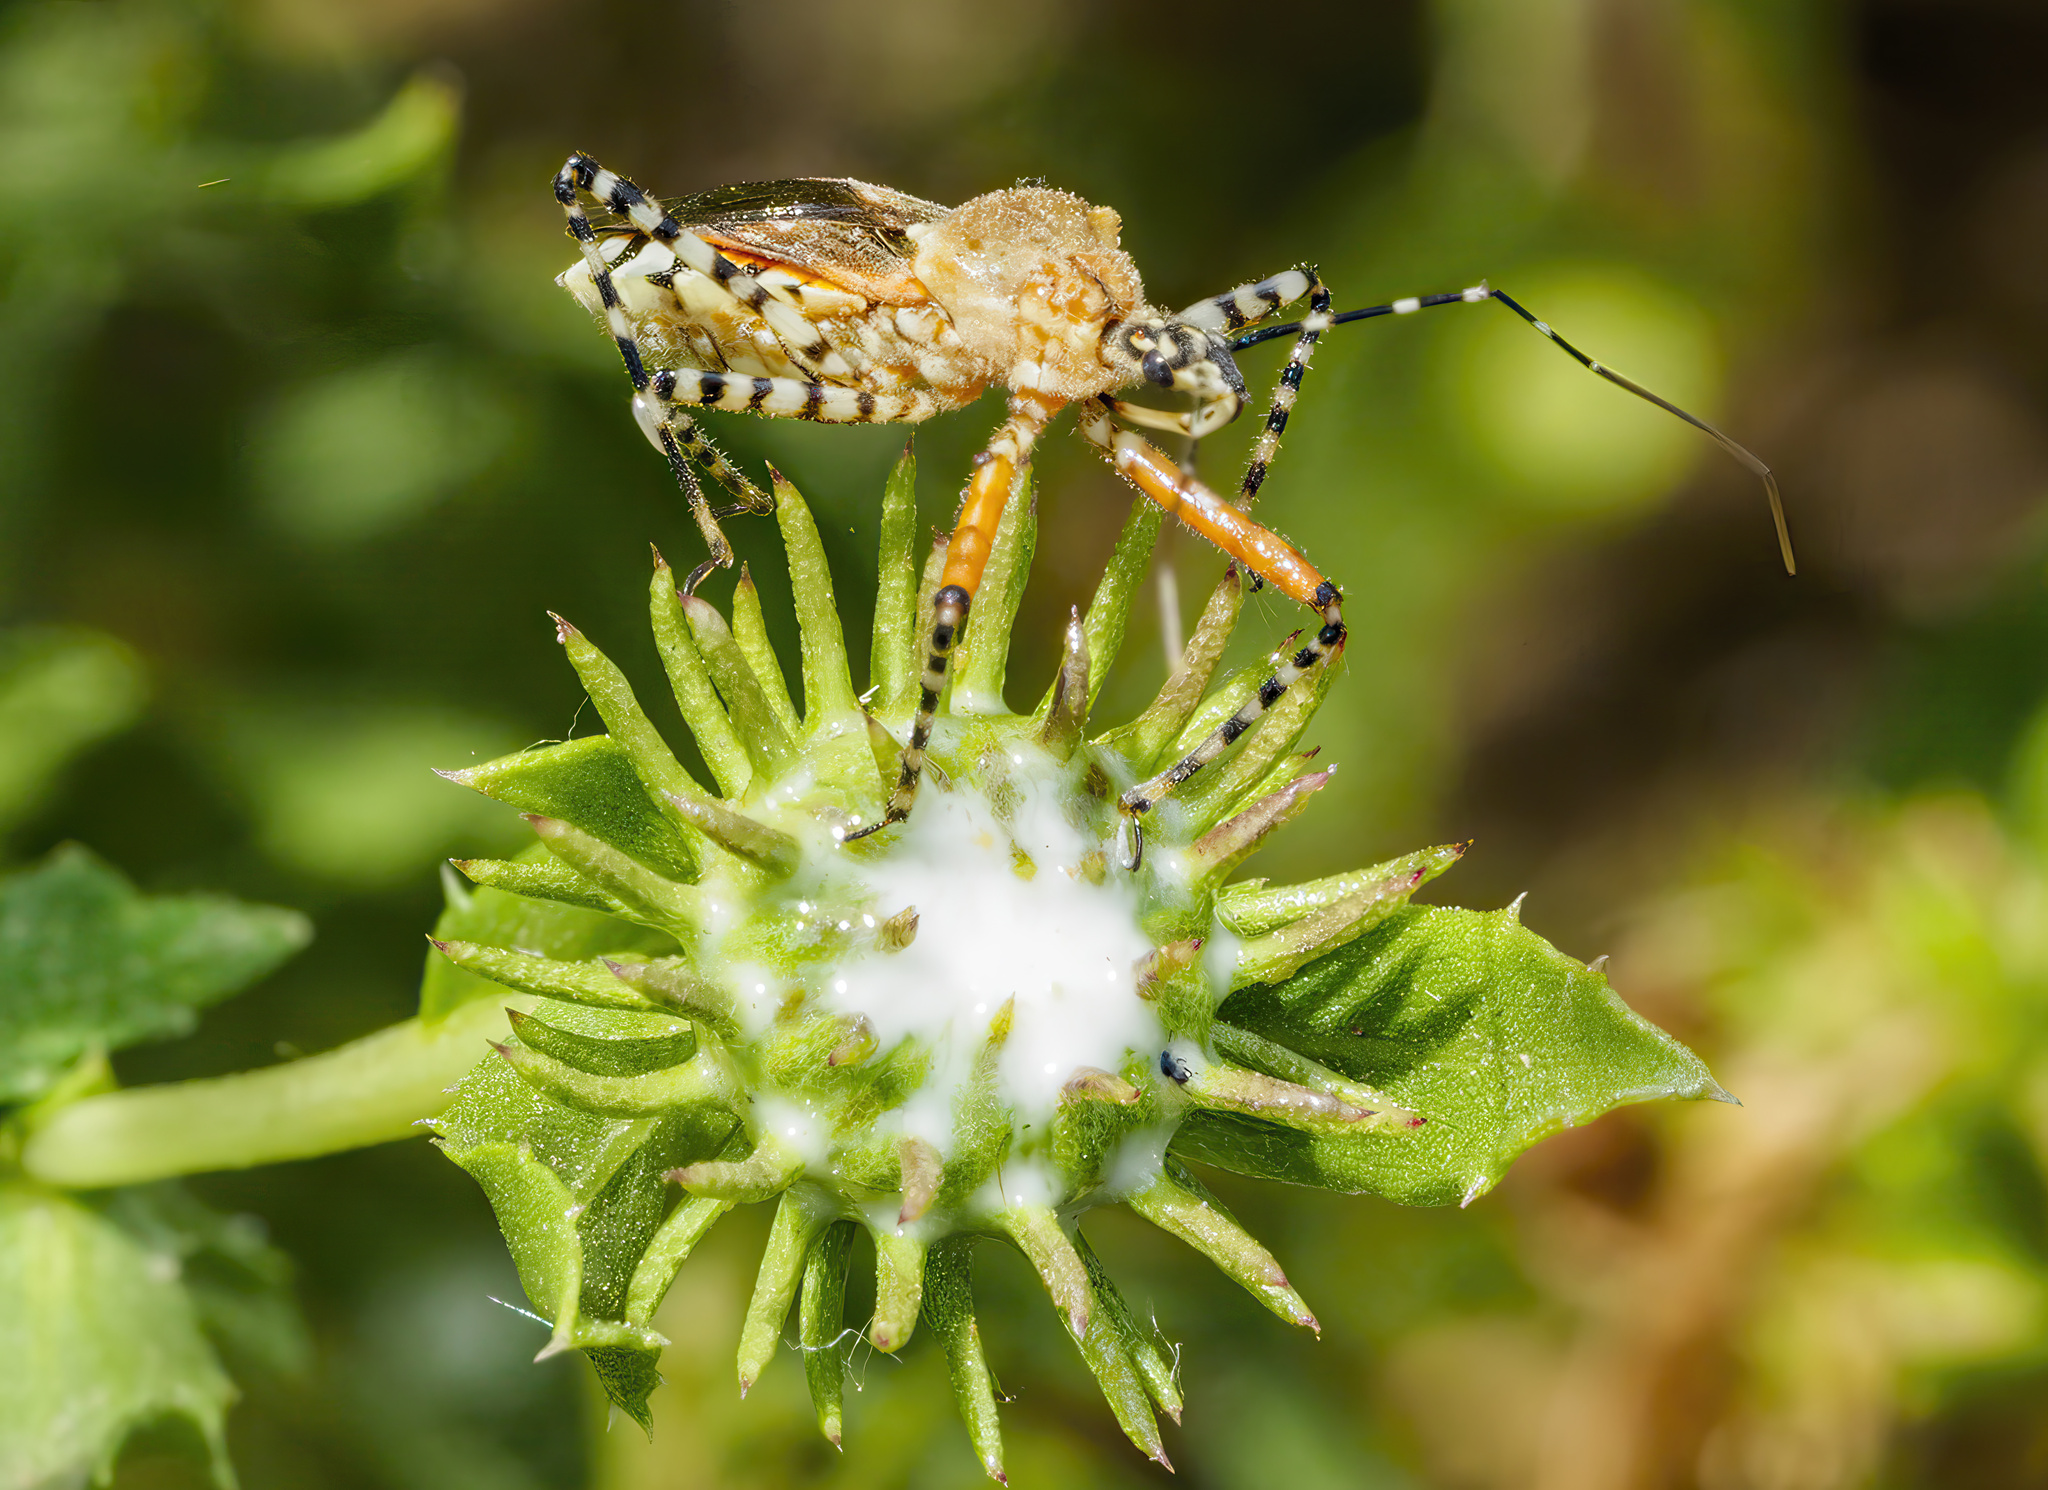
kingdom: Animalia
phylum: Arthropoda
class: Insecta
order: Hemiptera
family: Reduviidae
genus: Cosmoclopius
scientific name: Cosmoclopius nigroannulatus
